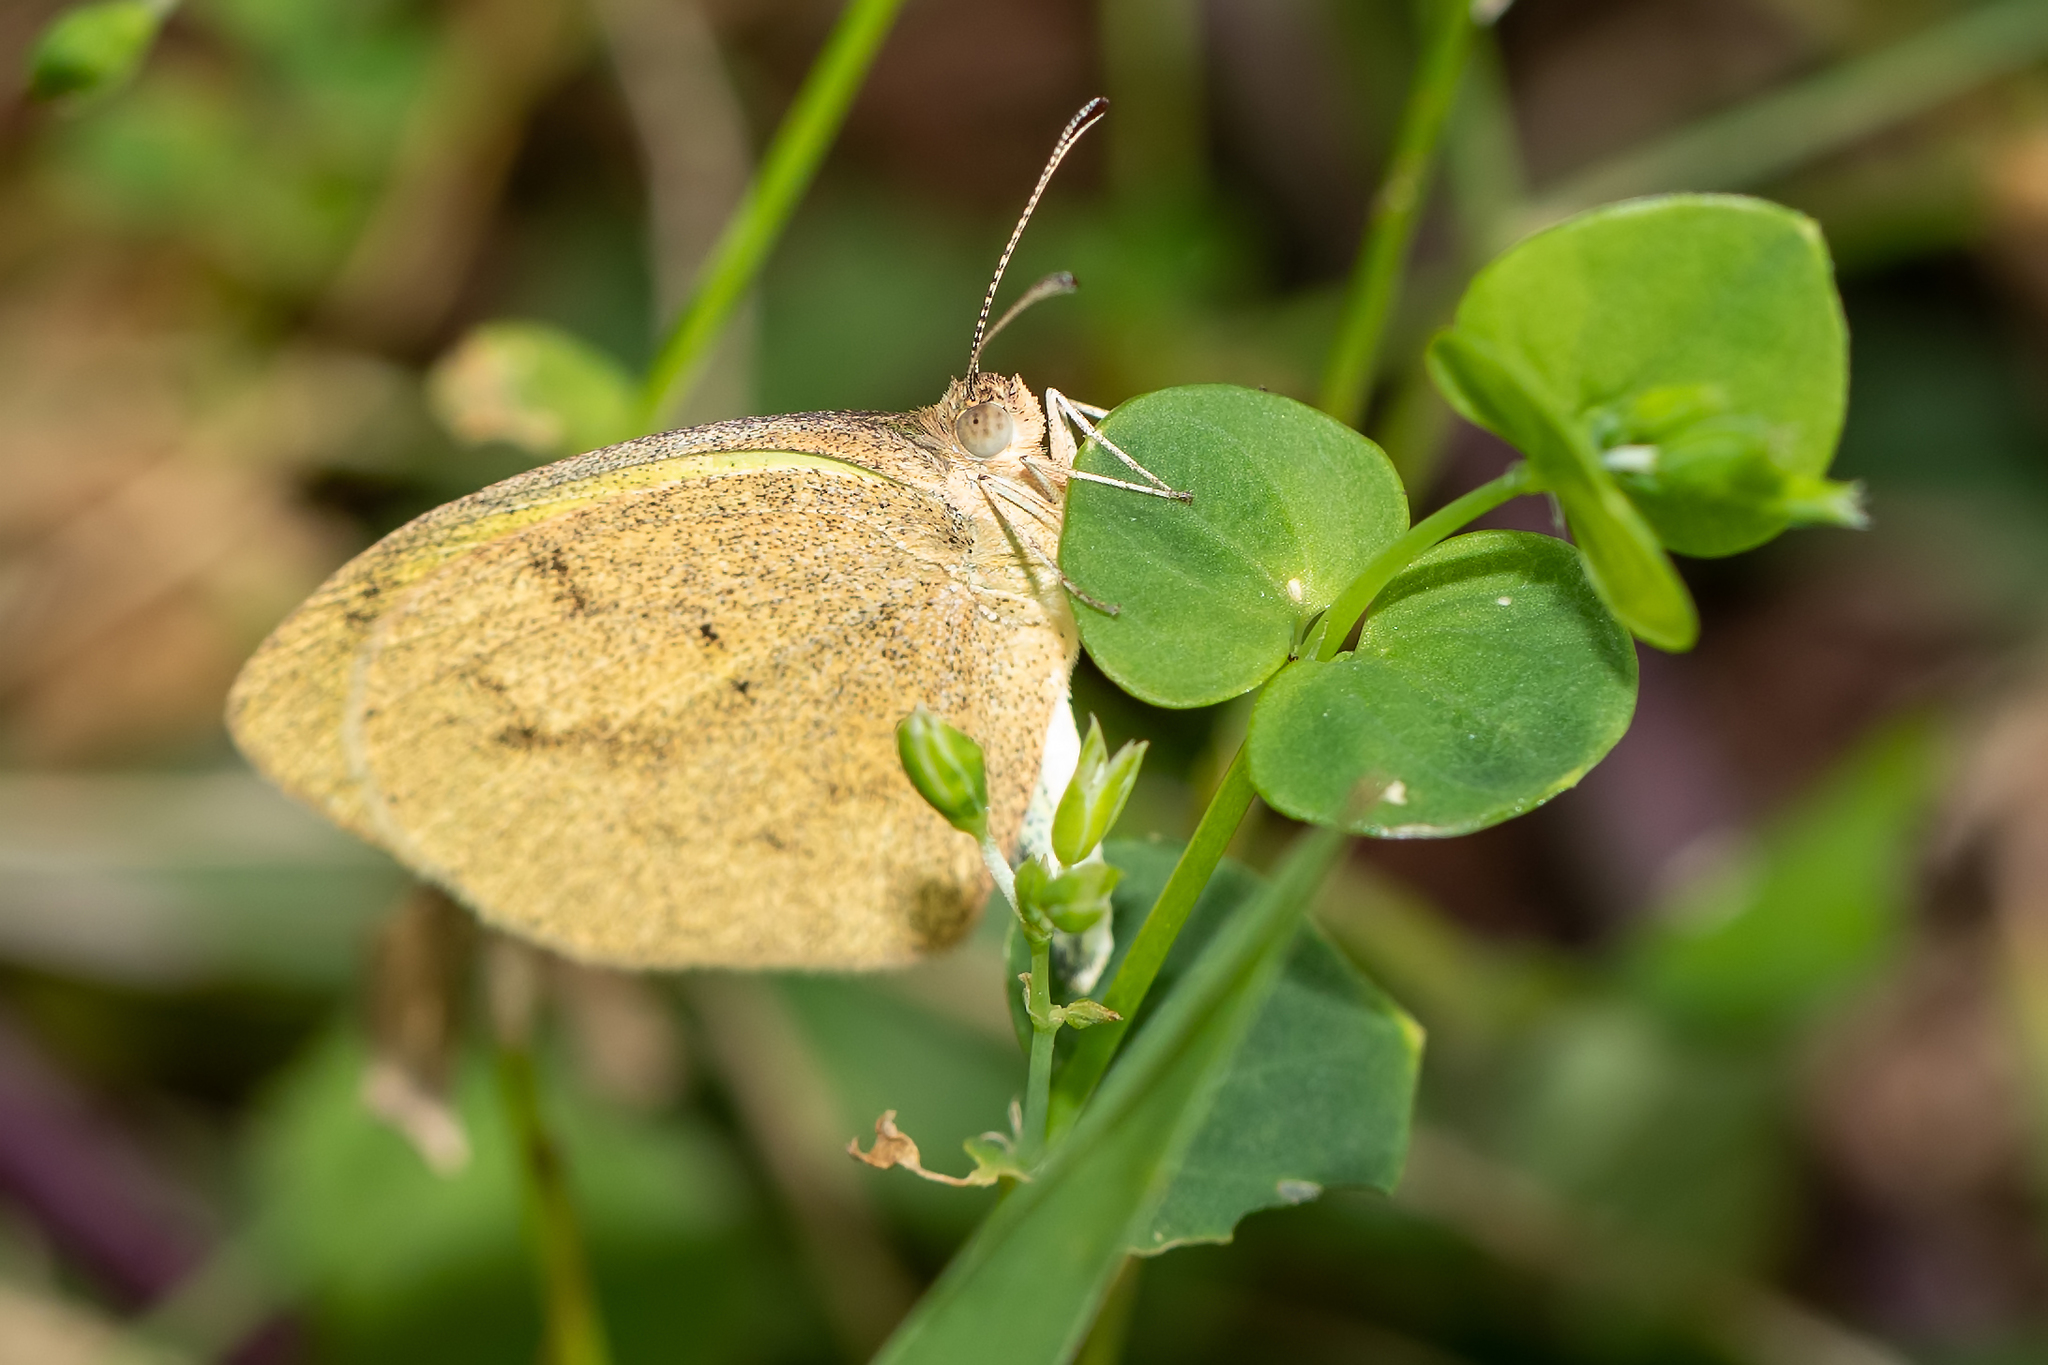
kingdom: Animalia
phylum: Arthropoda
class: Insecta
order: Lepidoptera
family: Pieridae
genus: Eurema
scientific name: Eurema daira
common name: Barred sulphur
